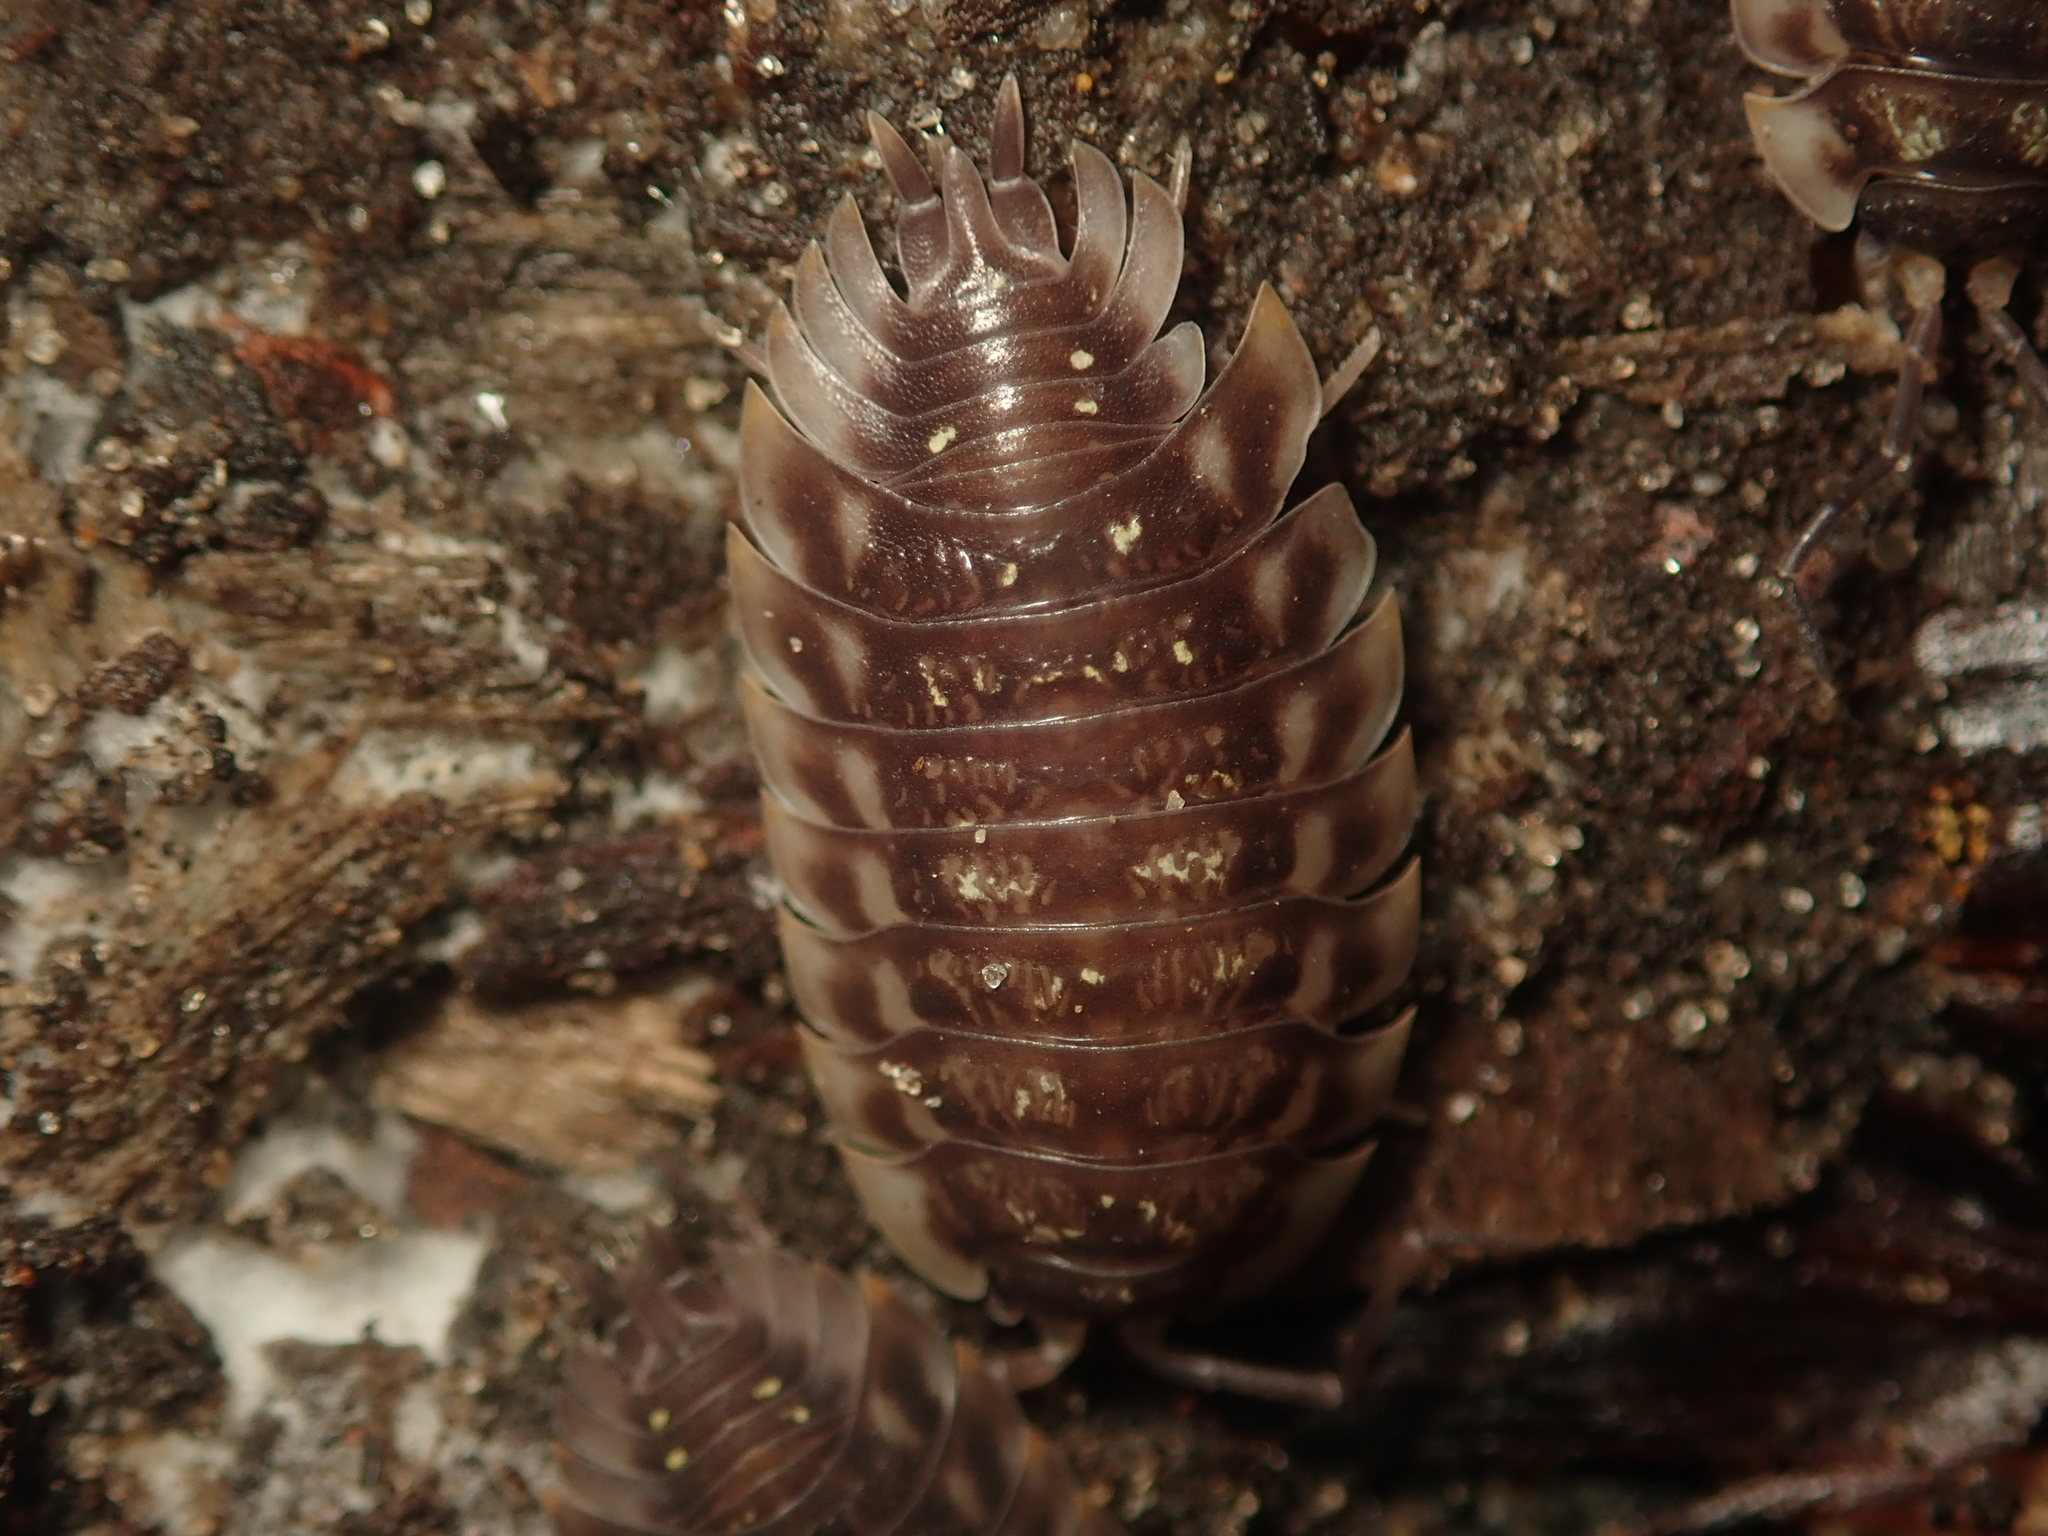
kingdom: Animalia
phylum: Arthropoda
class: Malacostraca
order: Isopoda
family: Oniscidae
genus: Oniscus
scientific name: Oniscus asellus
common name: Common shiny woodlouse
